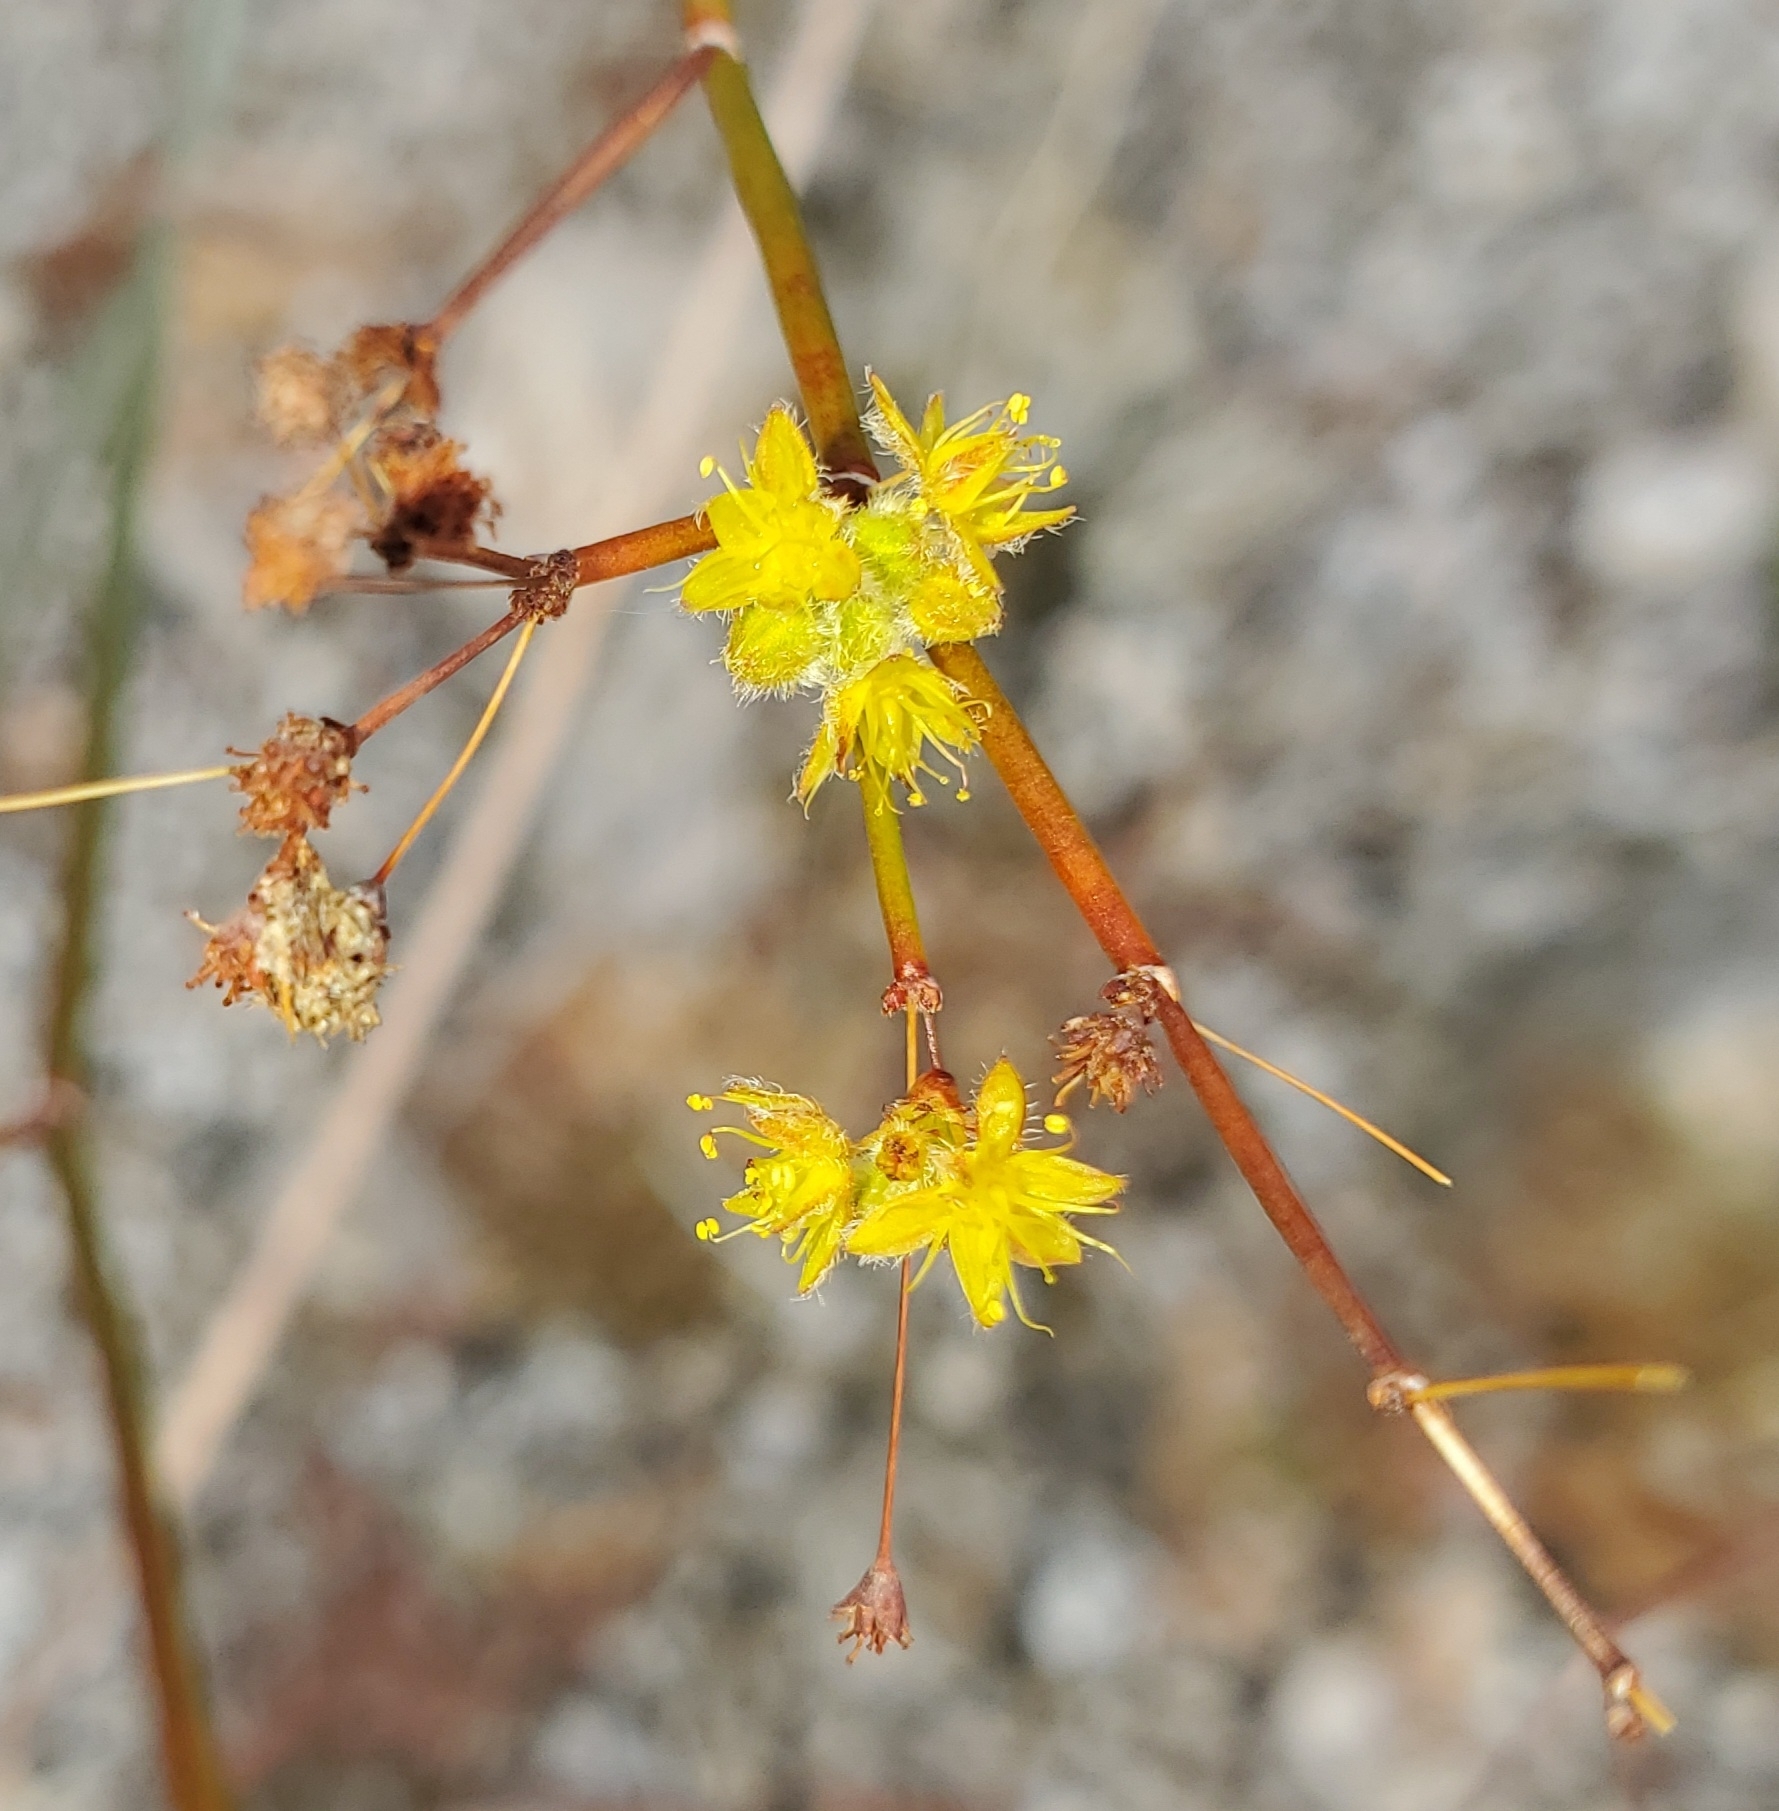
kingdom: Plantae
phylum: Tracheophyta
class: Magnoliopsida
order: Caryophyllales
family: Polygonaceae
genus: Eriogonum
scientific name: Eriogonum inflatum
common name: Desert trumpet
